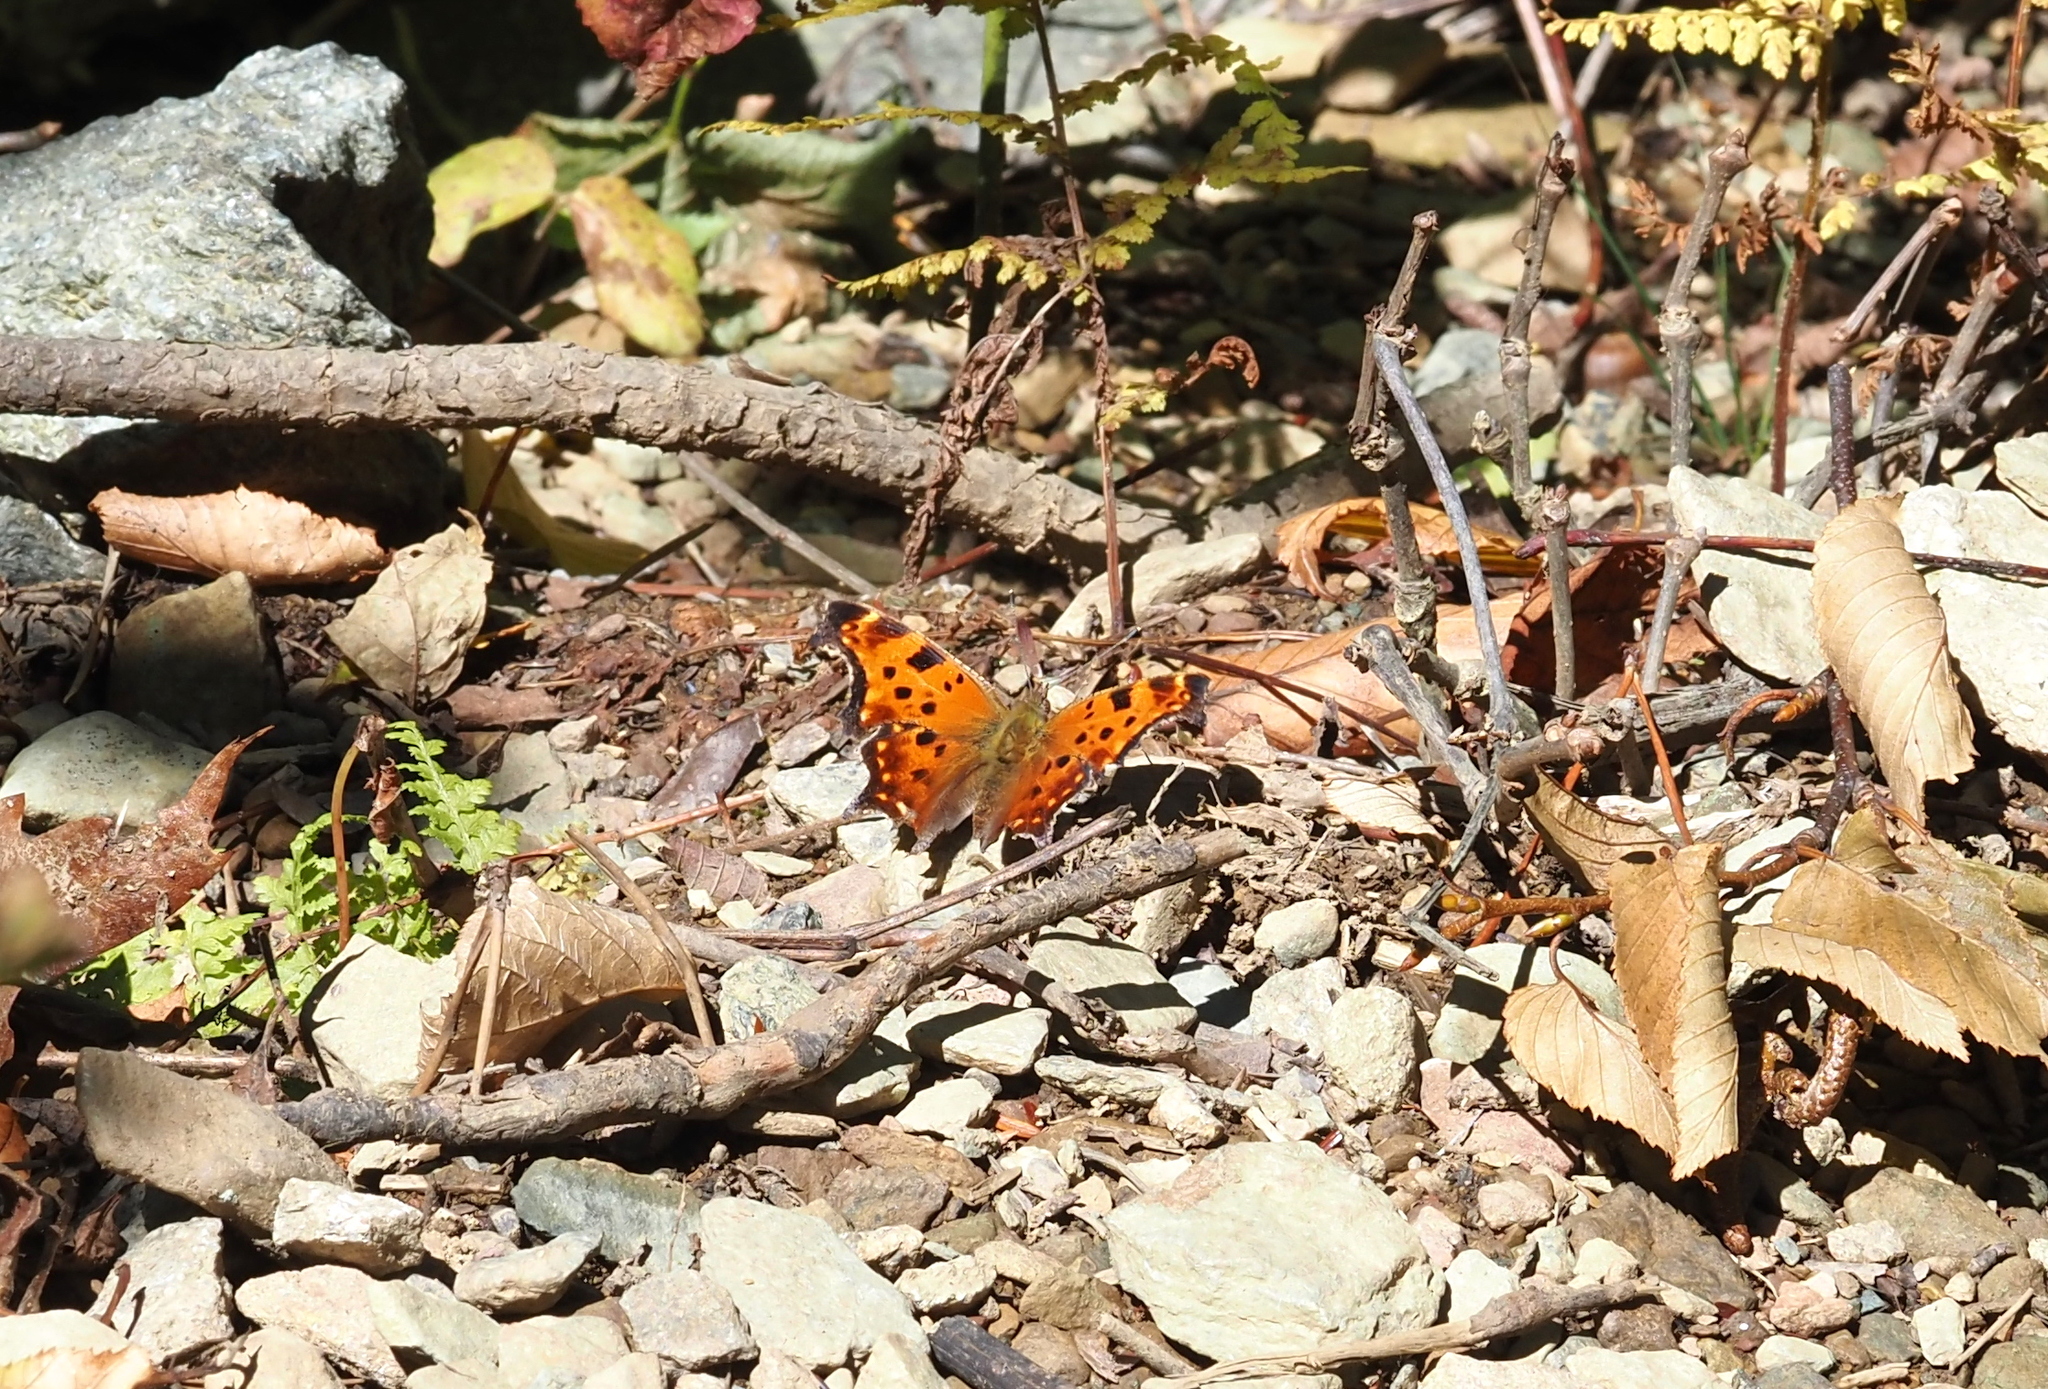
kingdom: Animalia
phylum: Arthropoda
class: Insecta
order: Lepidoptera
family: Nymphalidae
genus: Polygonia
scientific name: Polygonia comma
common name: Eastern comma
